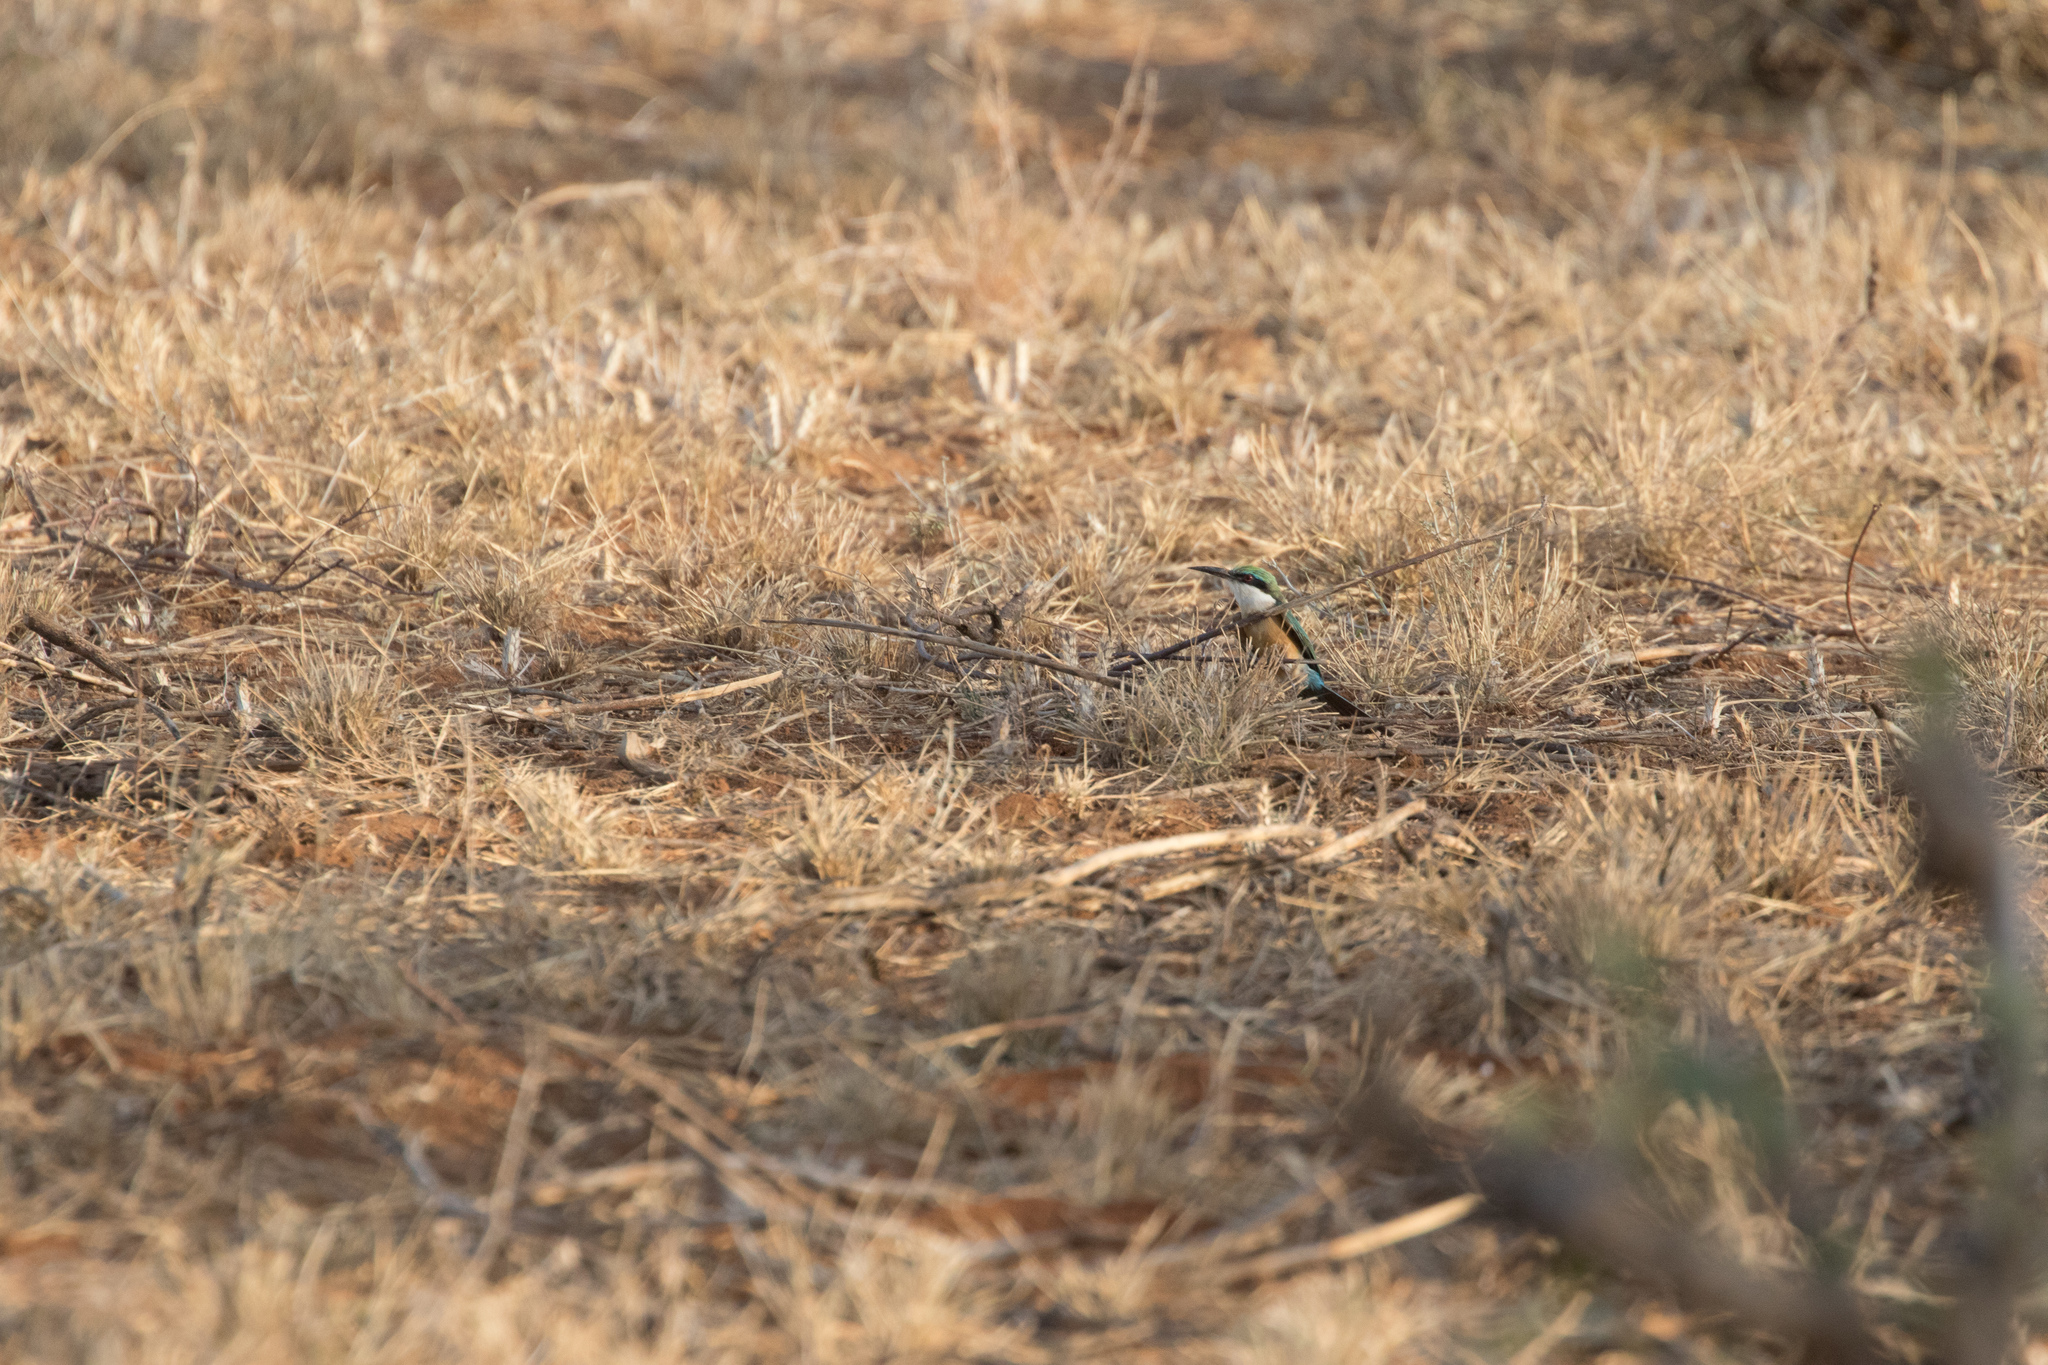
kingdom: Animalia
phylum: Chordata
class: Aves
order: Coraciiformes
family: Meropidae
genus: Merops
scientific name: Merops revoilii
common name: Somali bee-eater
